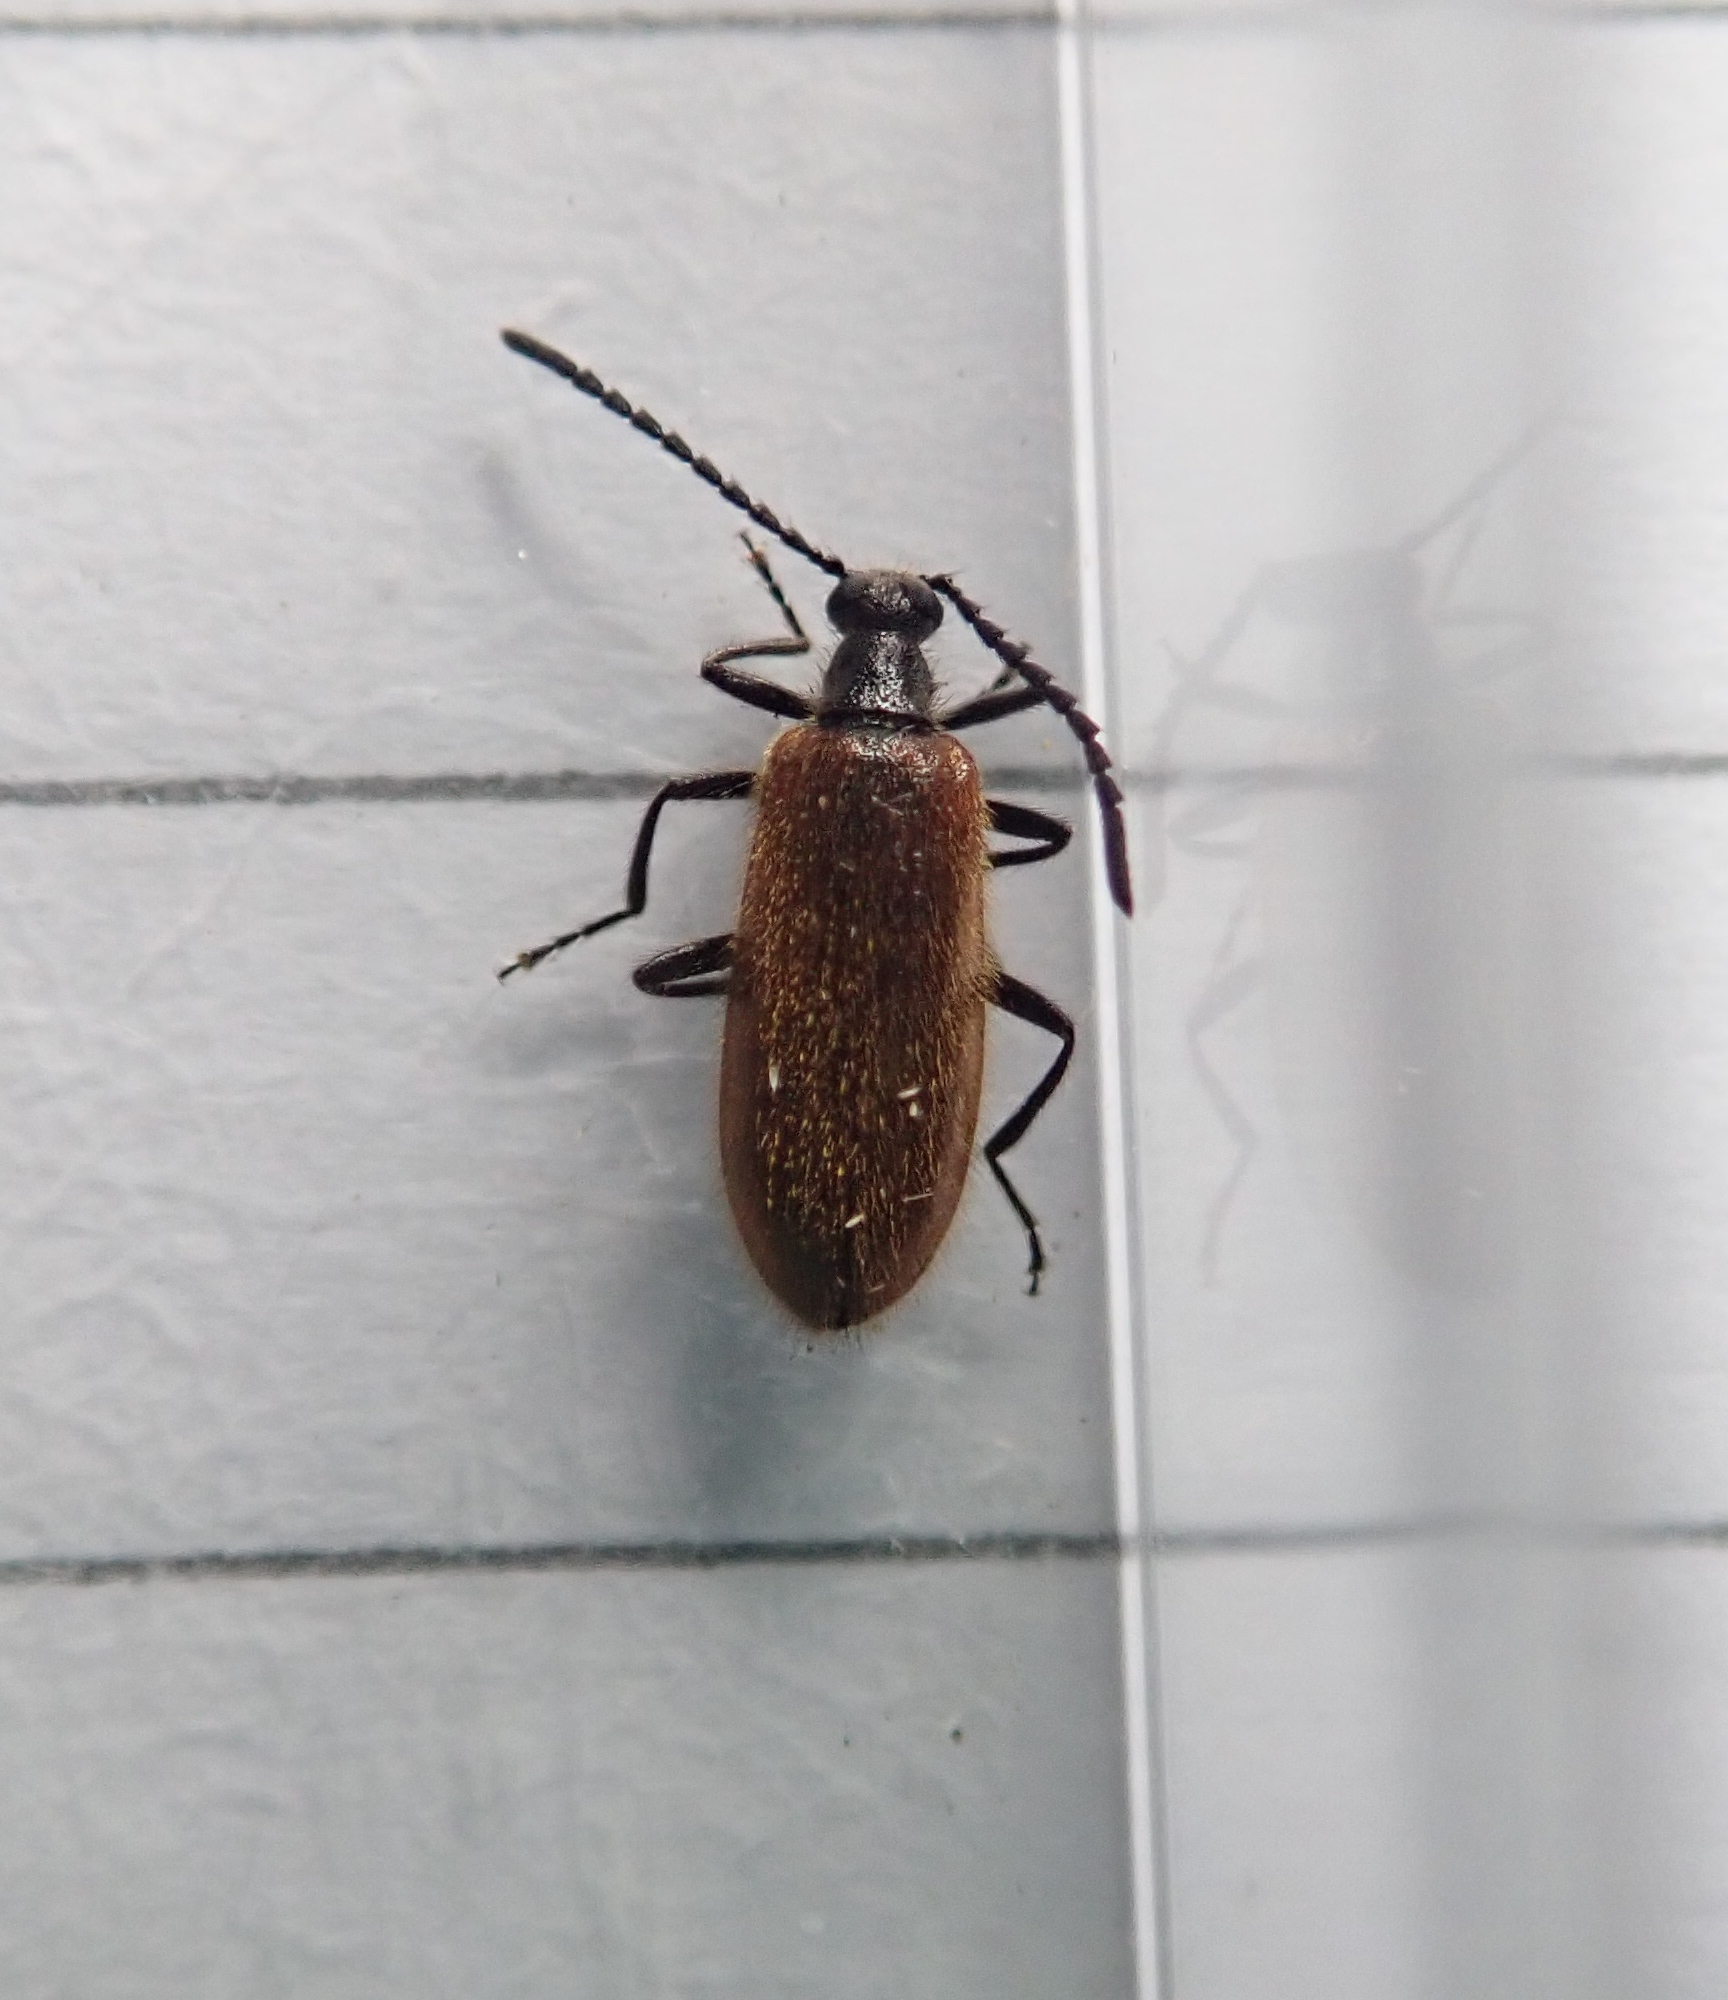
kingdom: Animalia
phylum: Arthropoda
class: Insecta
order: Coleoptera
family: Tenebrionidae
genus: Lagria
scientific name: Lagria hirta
